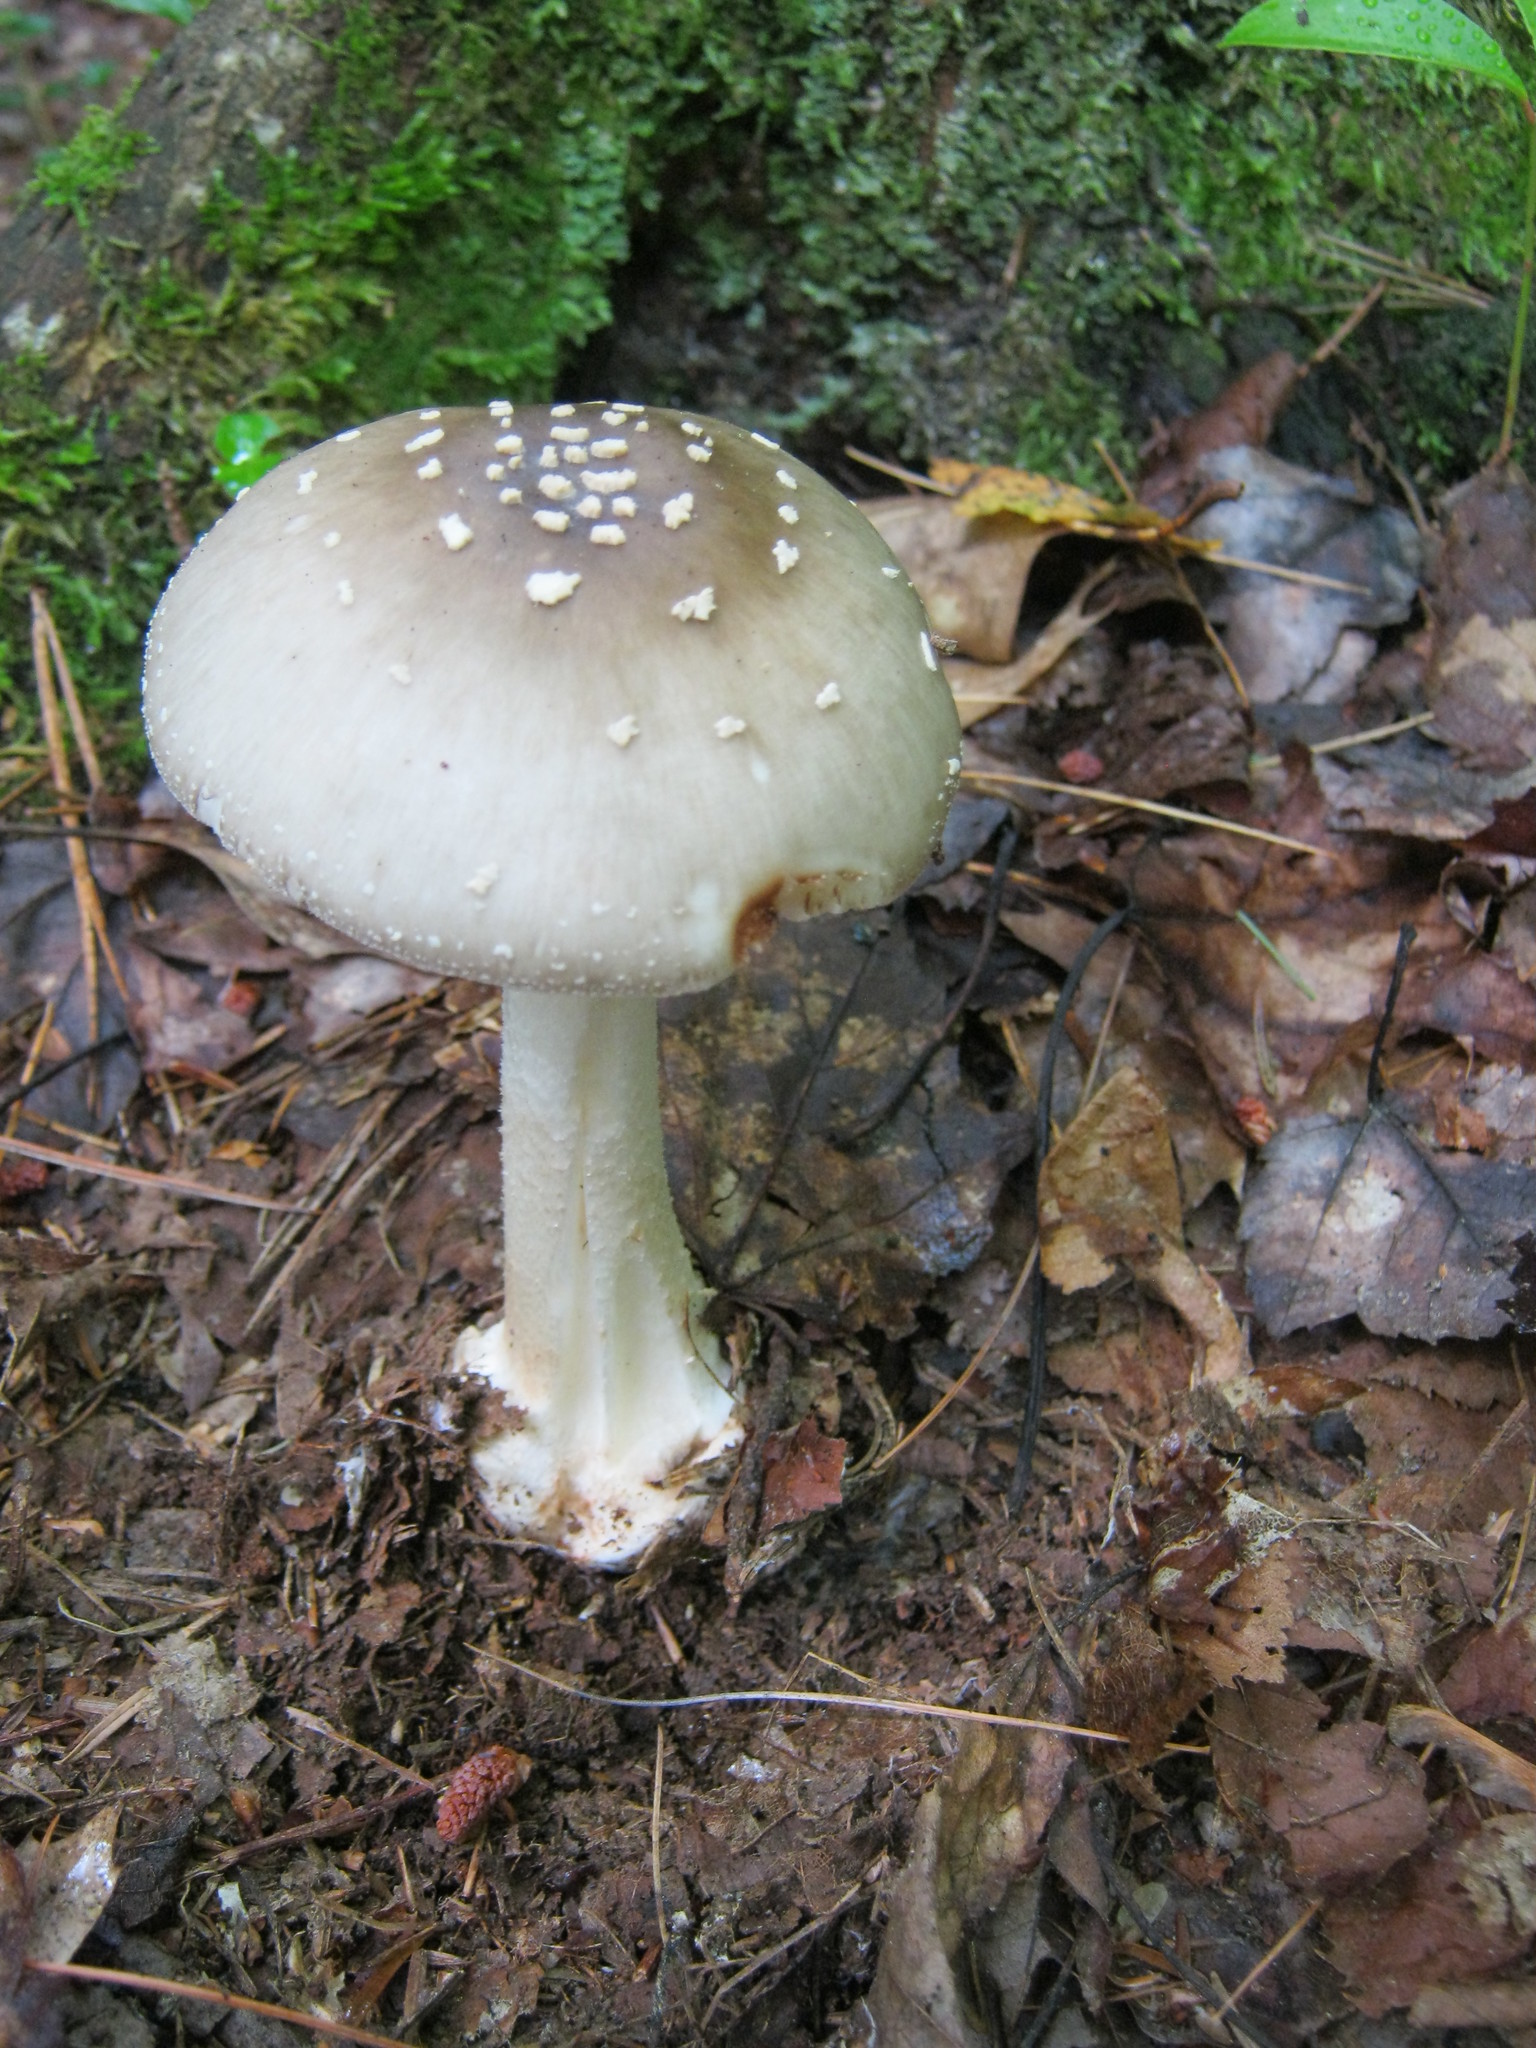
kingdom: Fungi
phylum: Basidiomycota
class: Agaricomycetes
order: Agaricales
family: Amanitaceae
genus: Amanita
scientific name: Amanita brunnescens
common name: Brown american star-footed amanita
